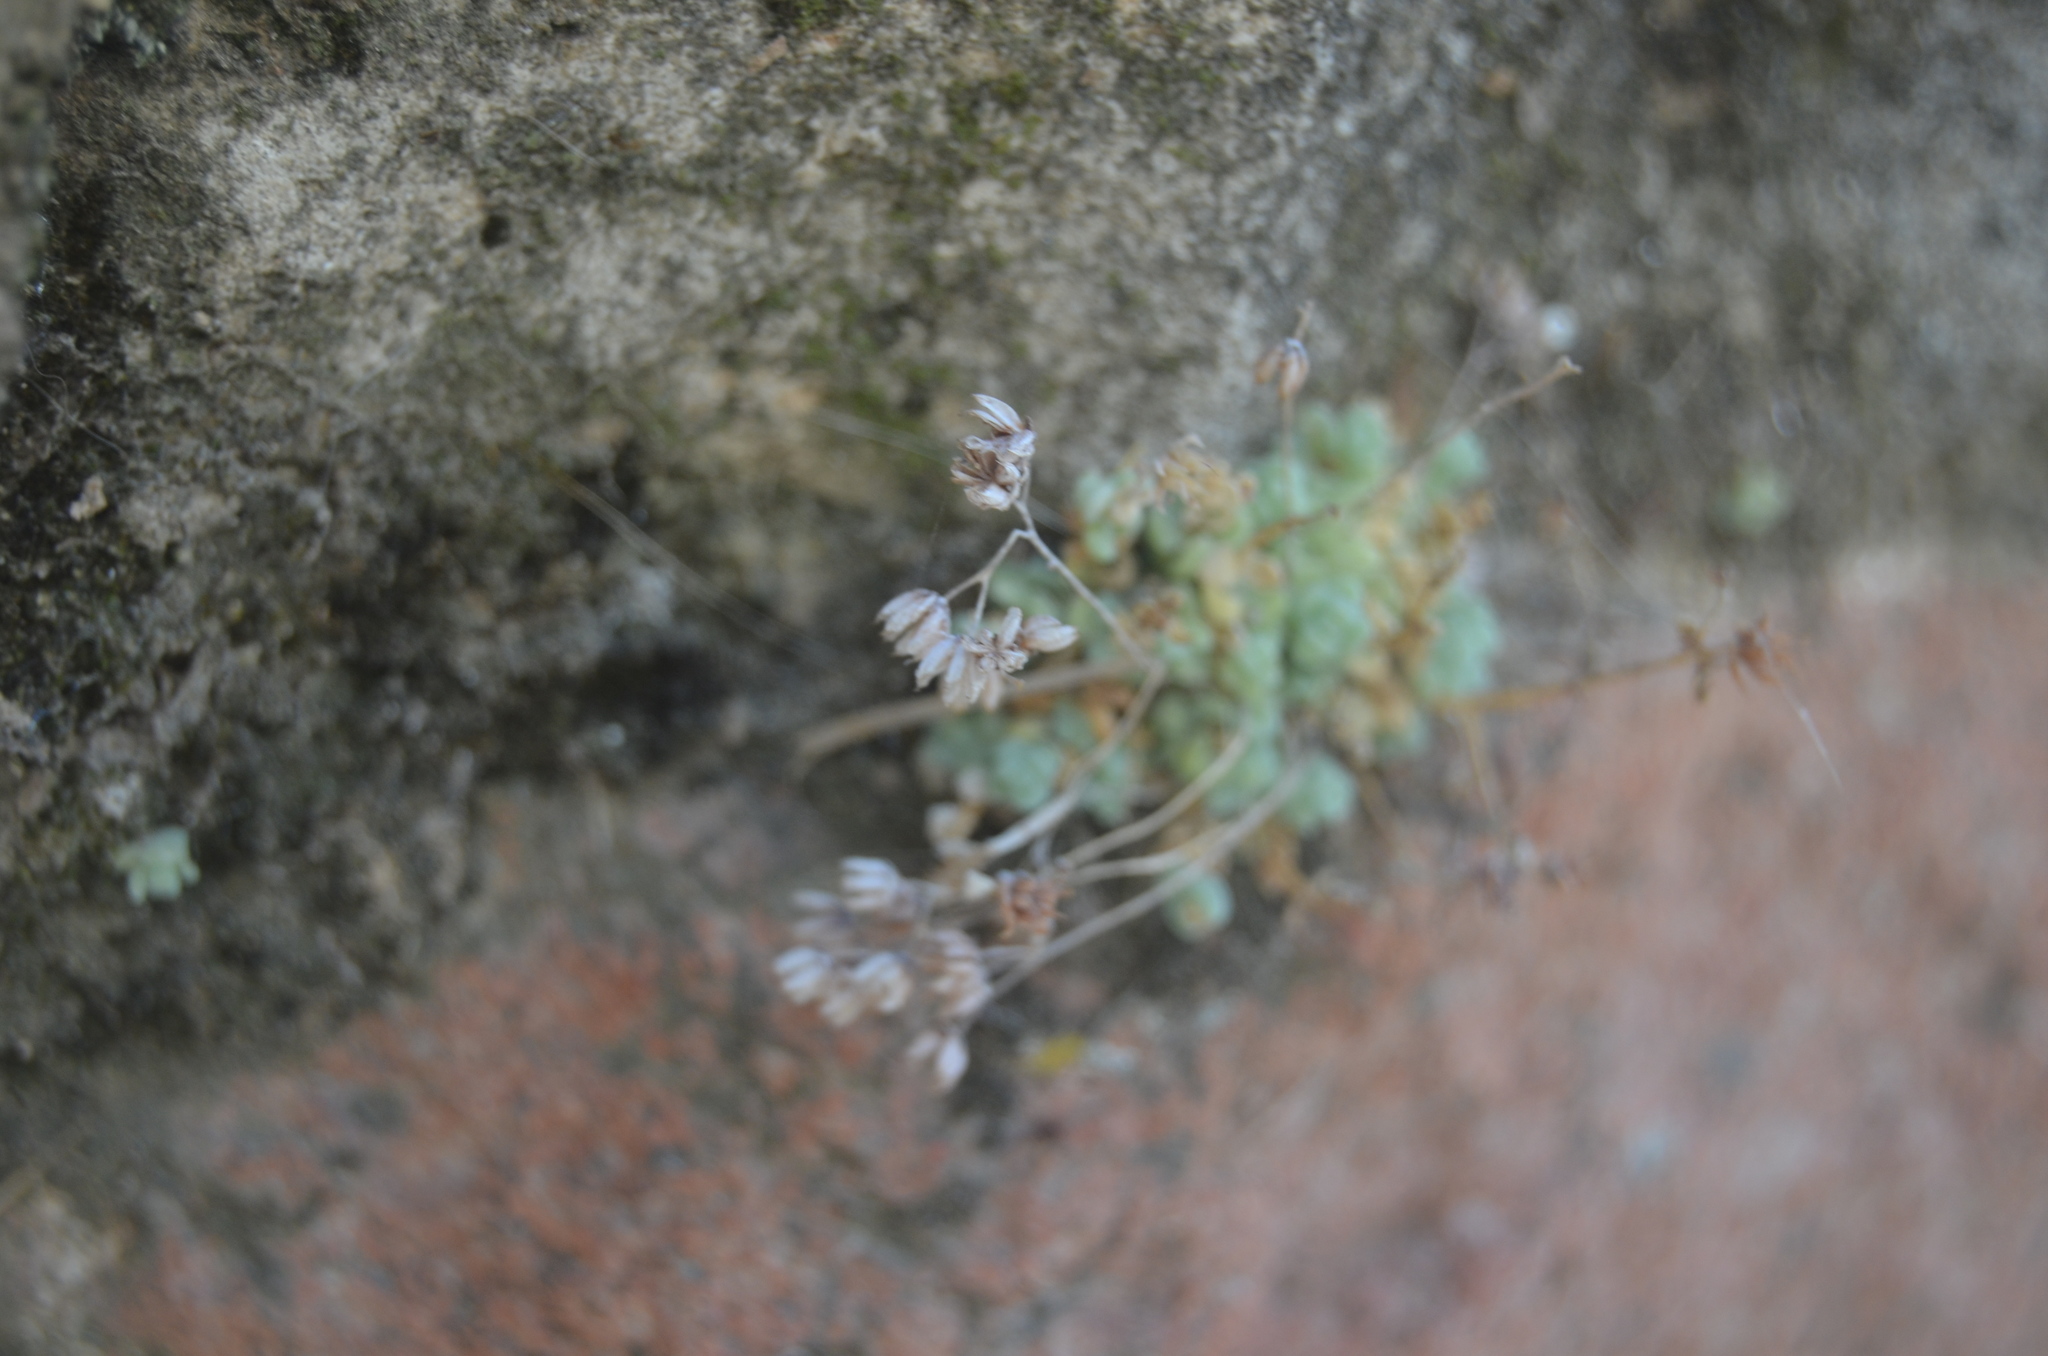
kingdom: Plantae
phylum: Tracheophyta
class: Magnoliopsida
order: Saxifragales
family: Crassulaceae
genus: Sedum
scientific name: Sedum dasyphyllum
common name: Thick-leaf stonecrop
